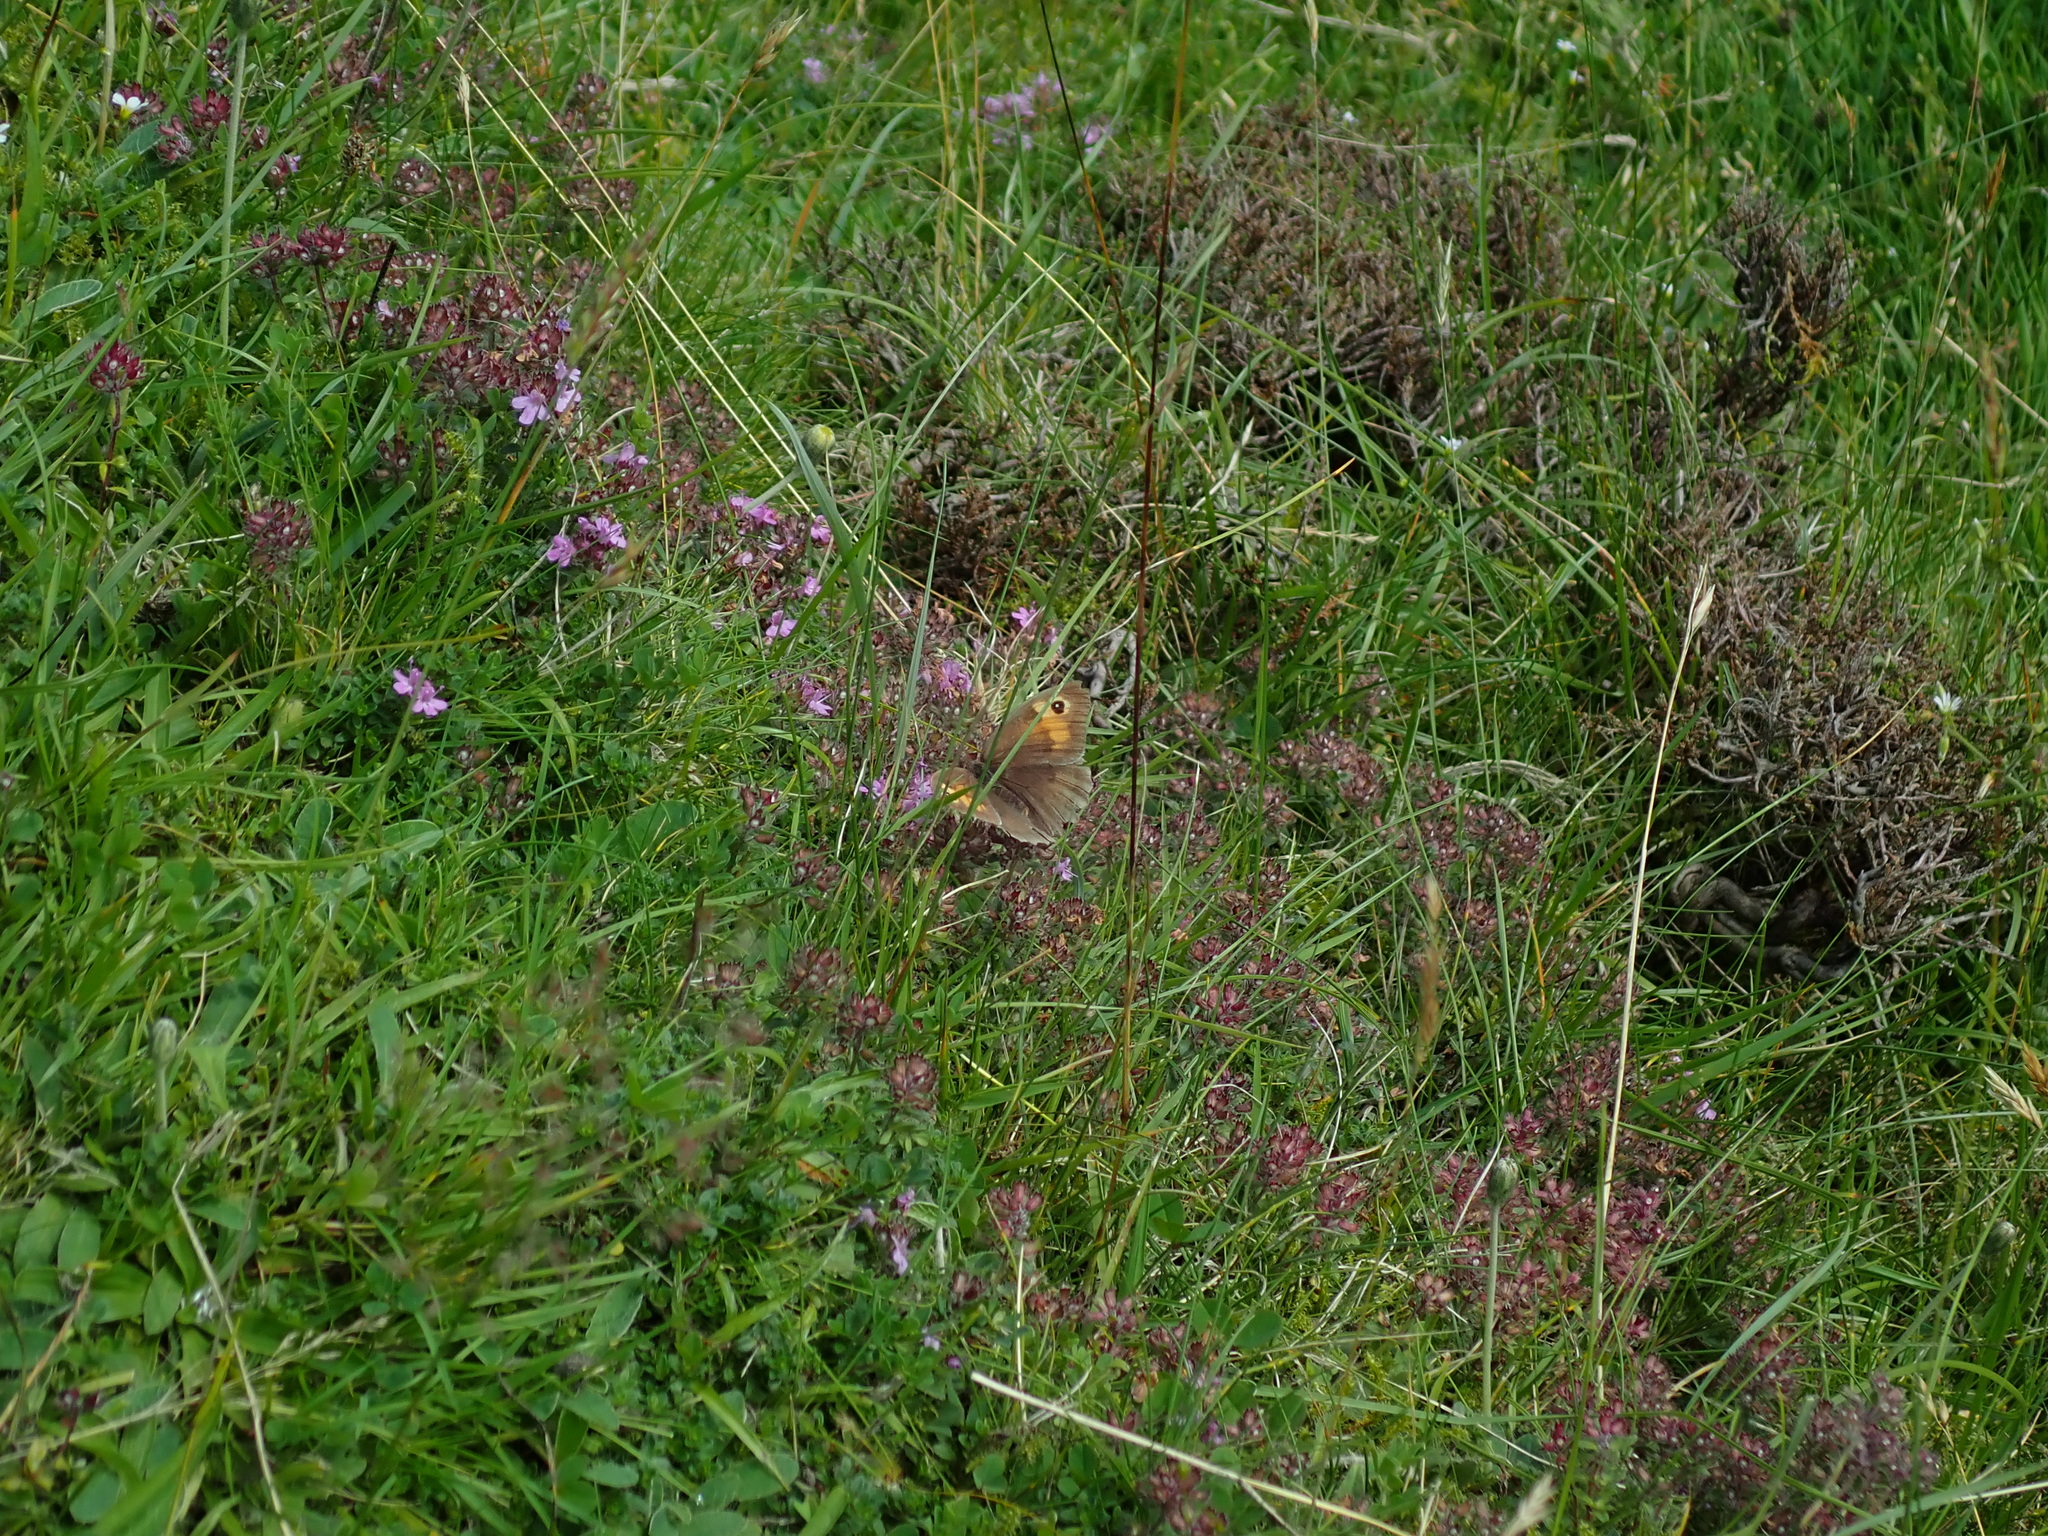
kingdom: Animalia
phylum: Arthropoda
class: Insecta
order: Lepidoptera
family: Nymphalidae
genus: Maniola
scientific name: Maniola jurtina
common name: Meadow brown
